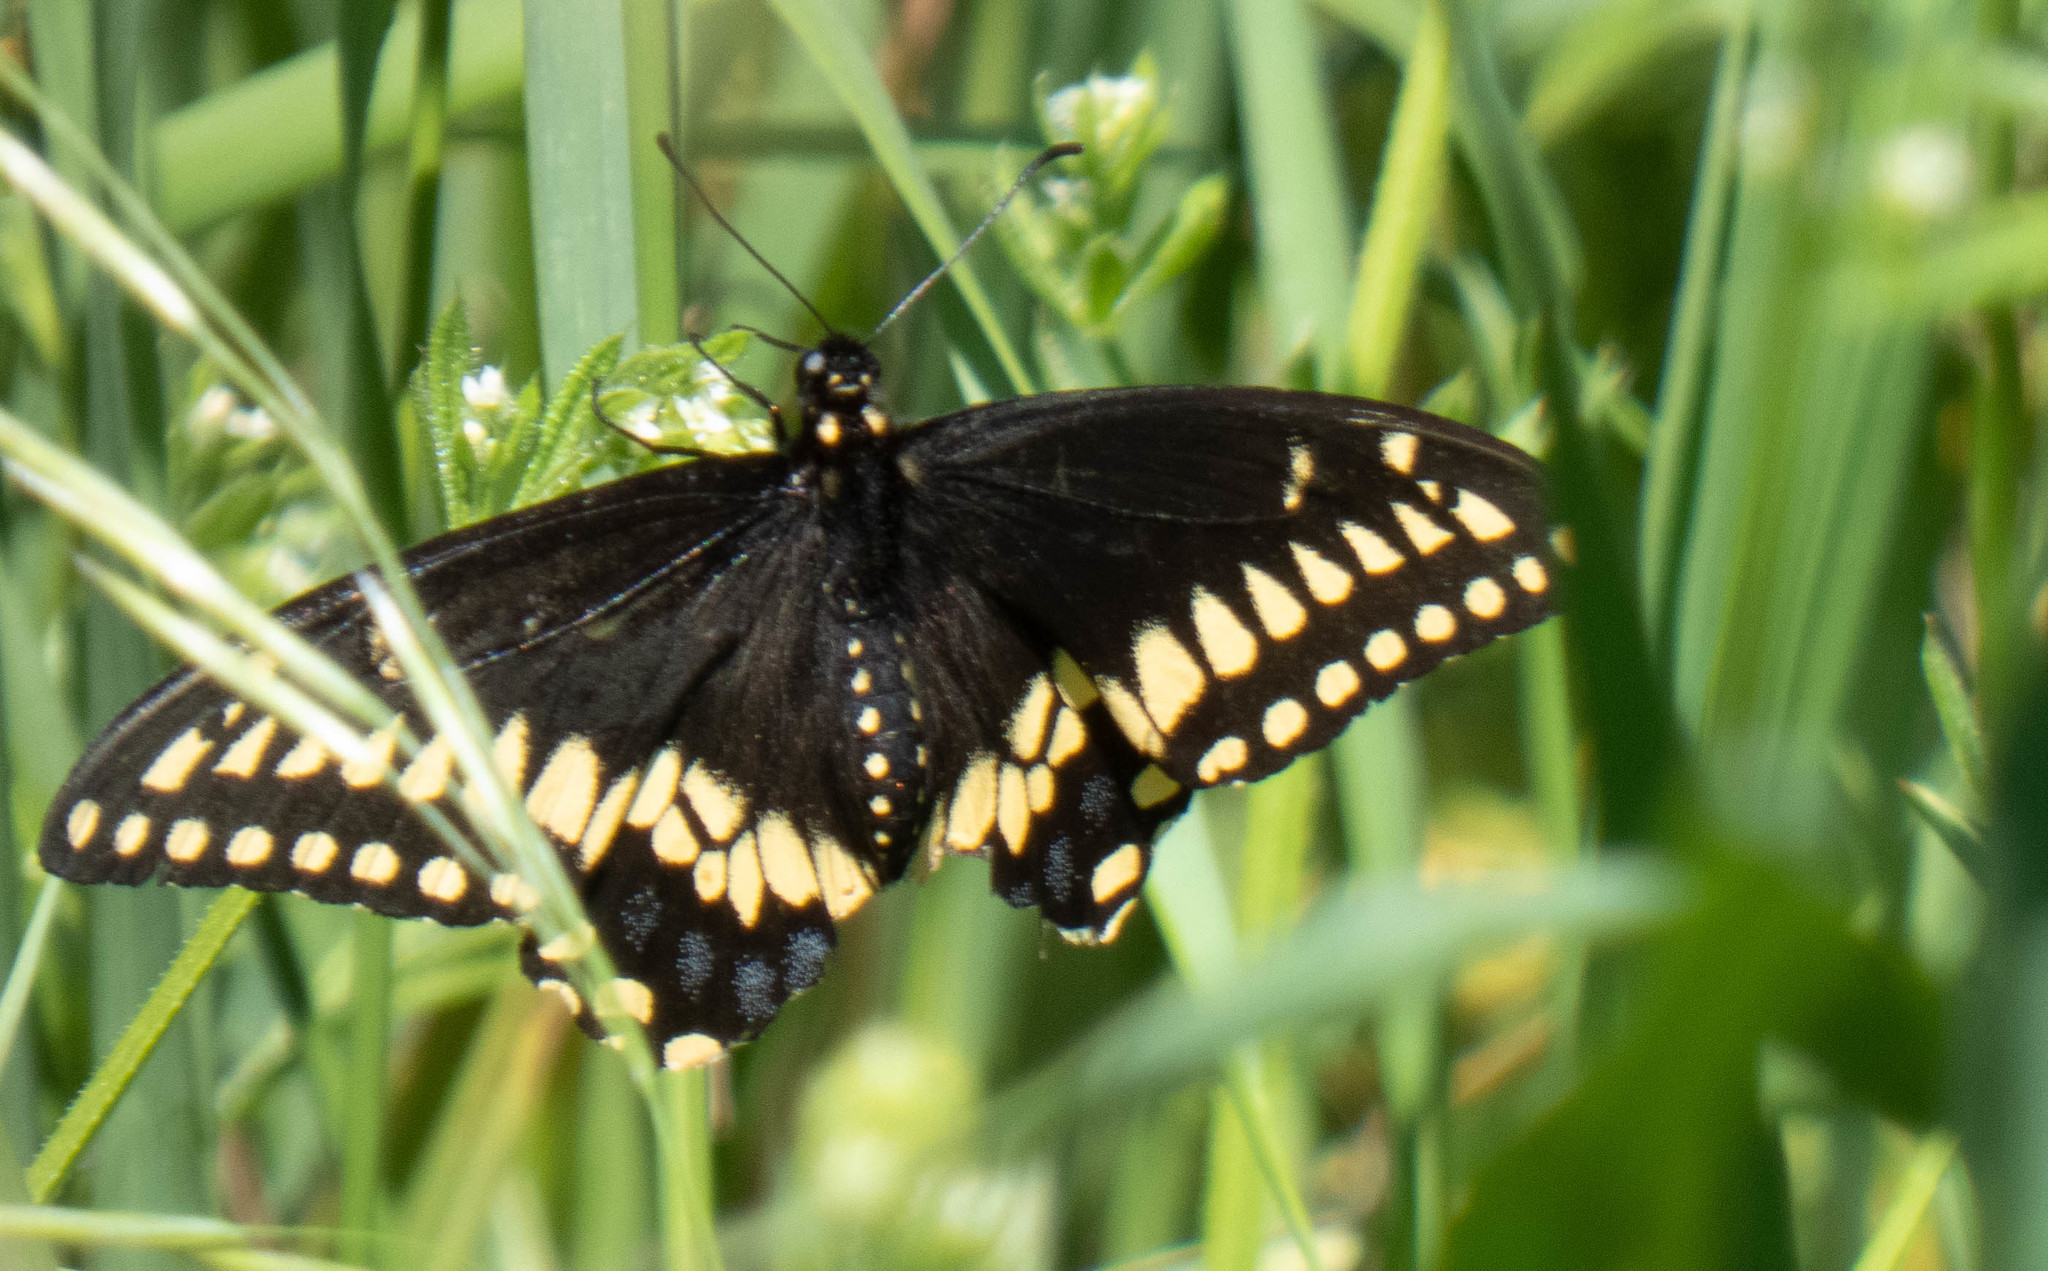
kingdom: Animalia
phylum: Arthropoda
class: Insecta
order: Lepidoptera
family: Papilionidae
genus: Papilio
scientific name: Papilio polyxenes
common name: Black swallowtail
